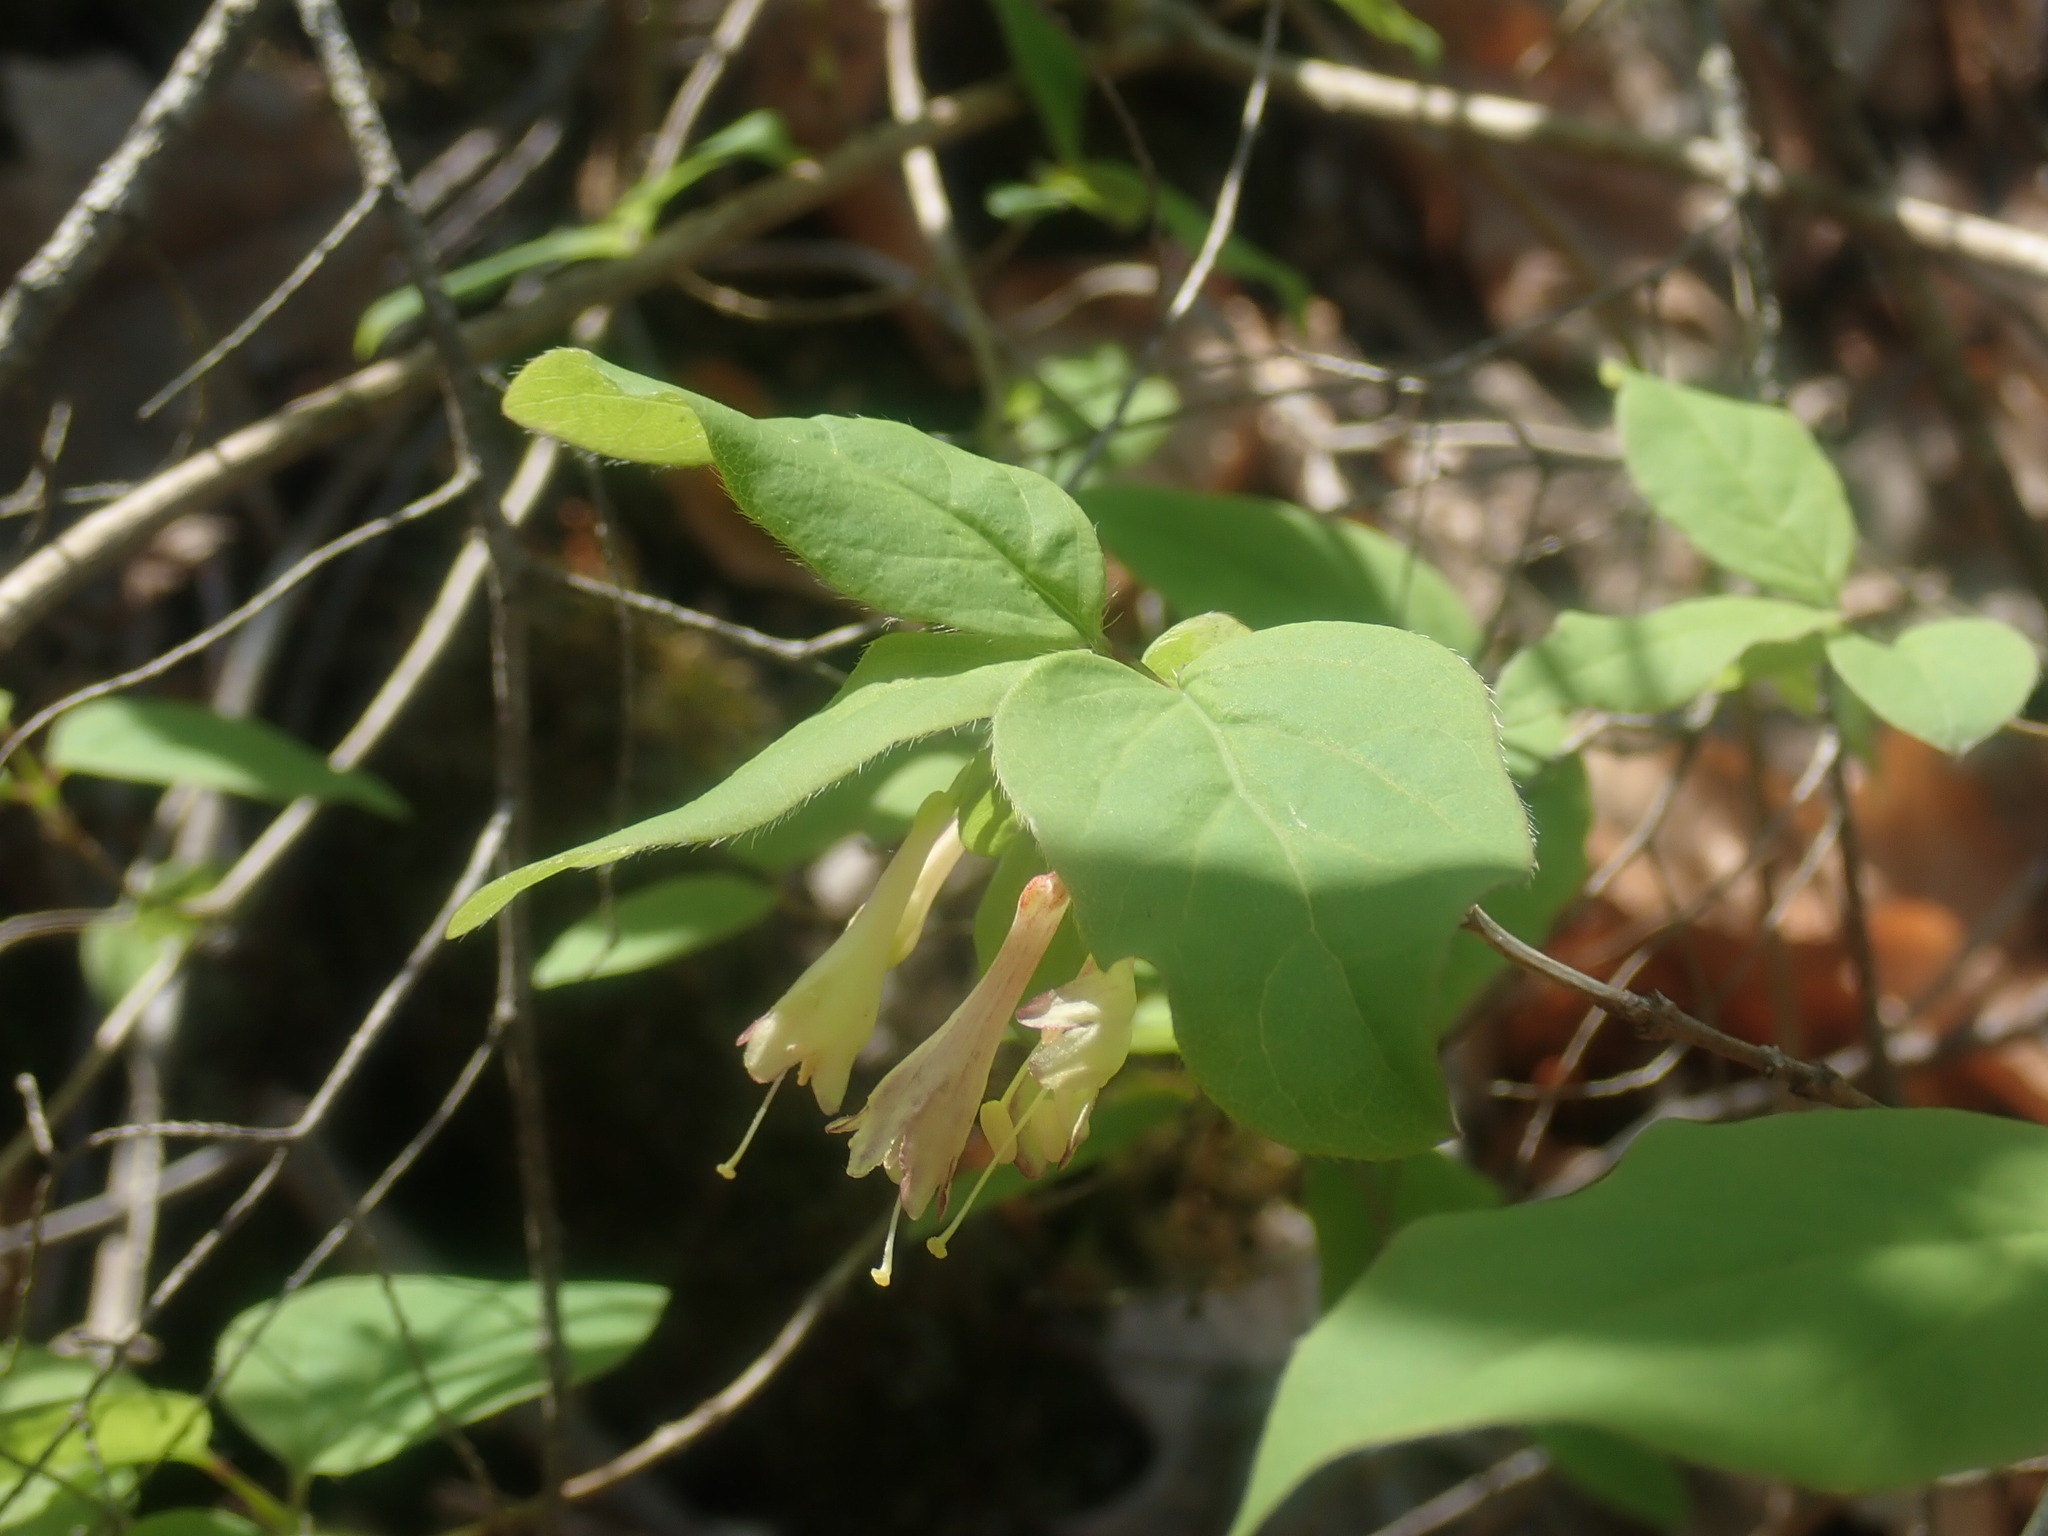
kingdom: Plantae
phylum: Tracheophyta
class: Magnoliopsida
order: Dipsacales
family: Caprifoliaceae
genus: Lonicera
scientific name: Lonicera canadensis
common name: American fly-honeysuckle
